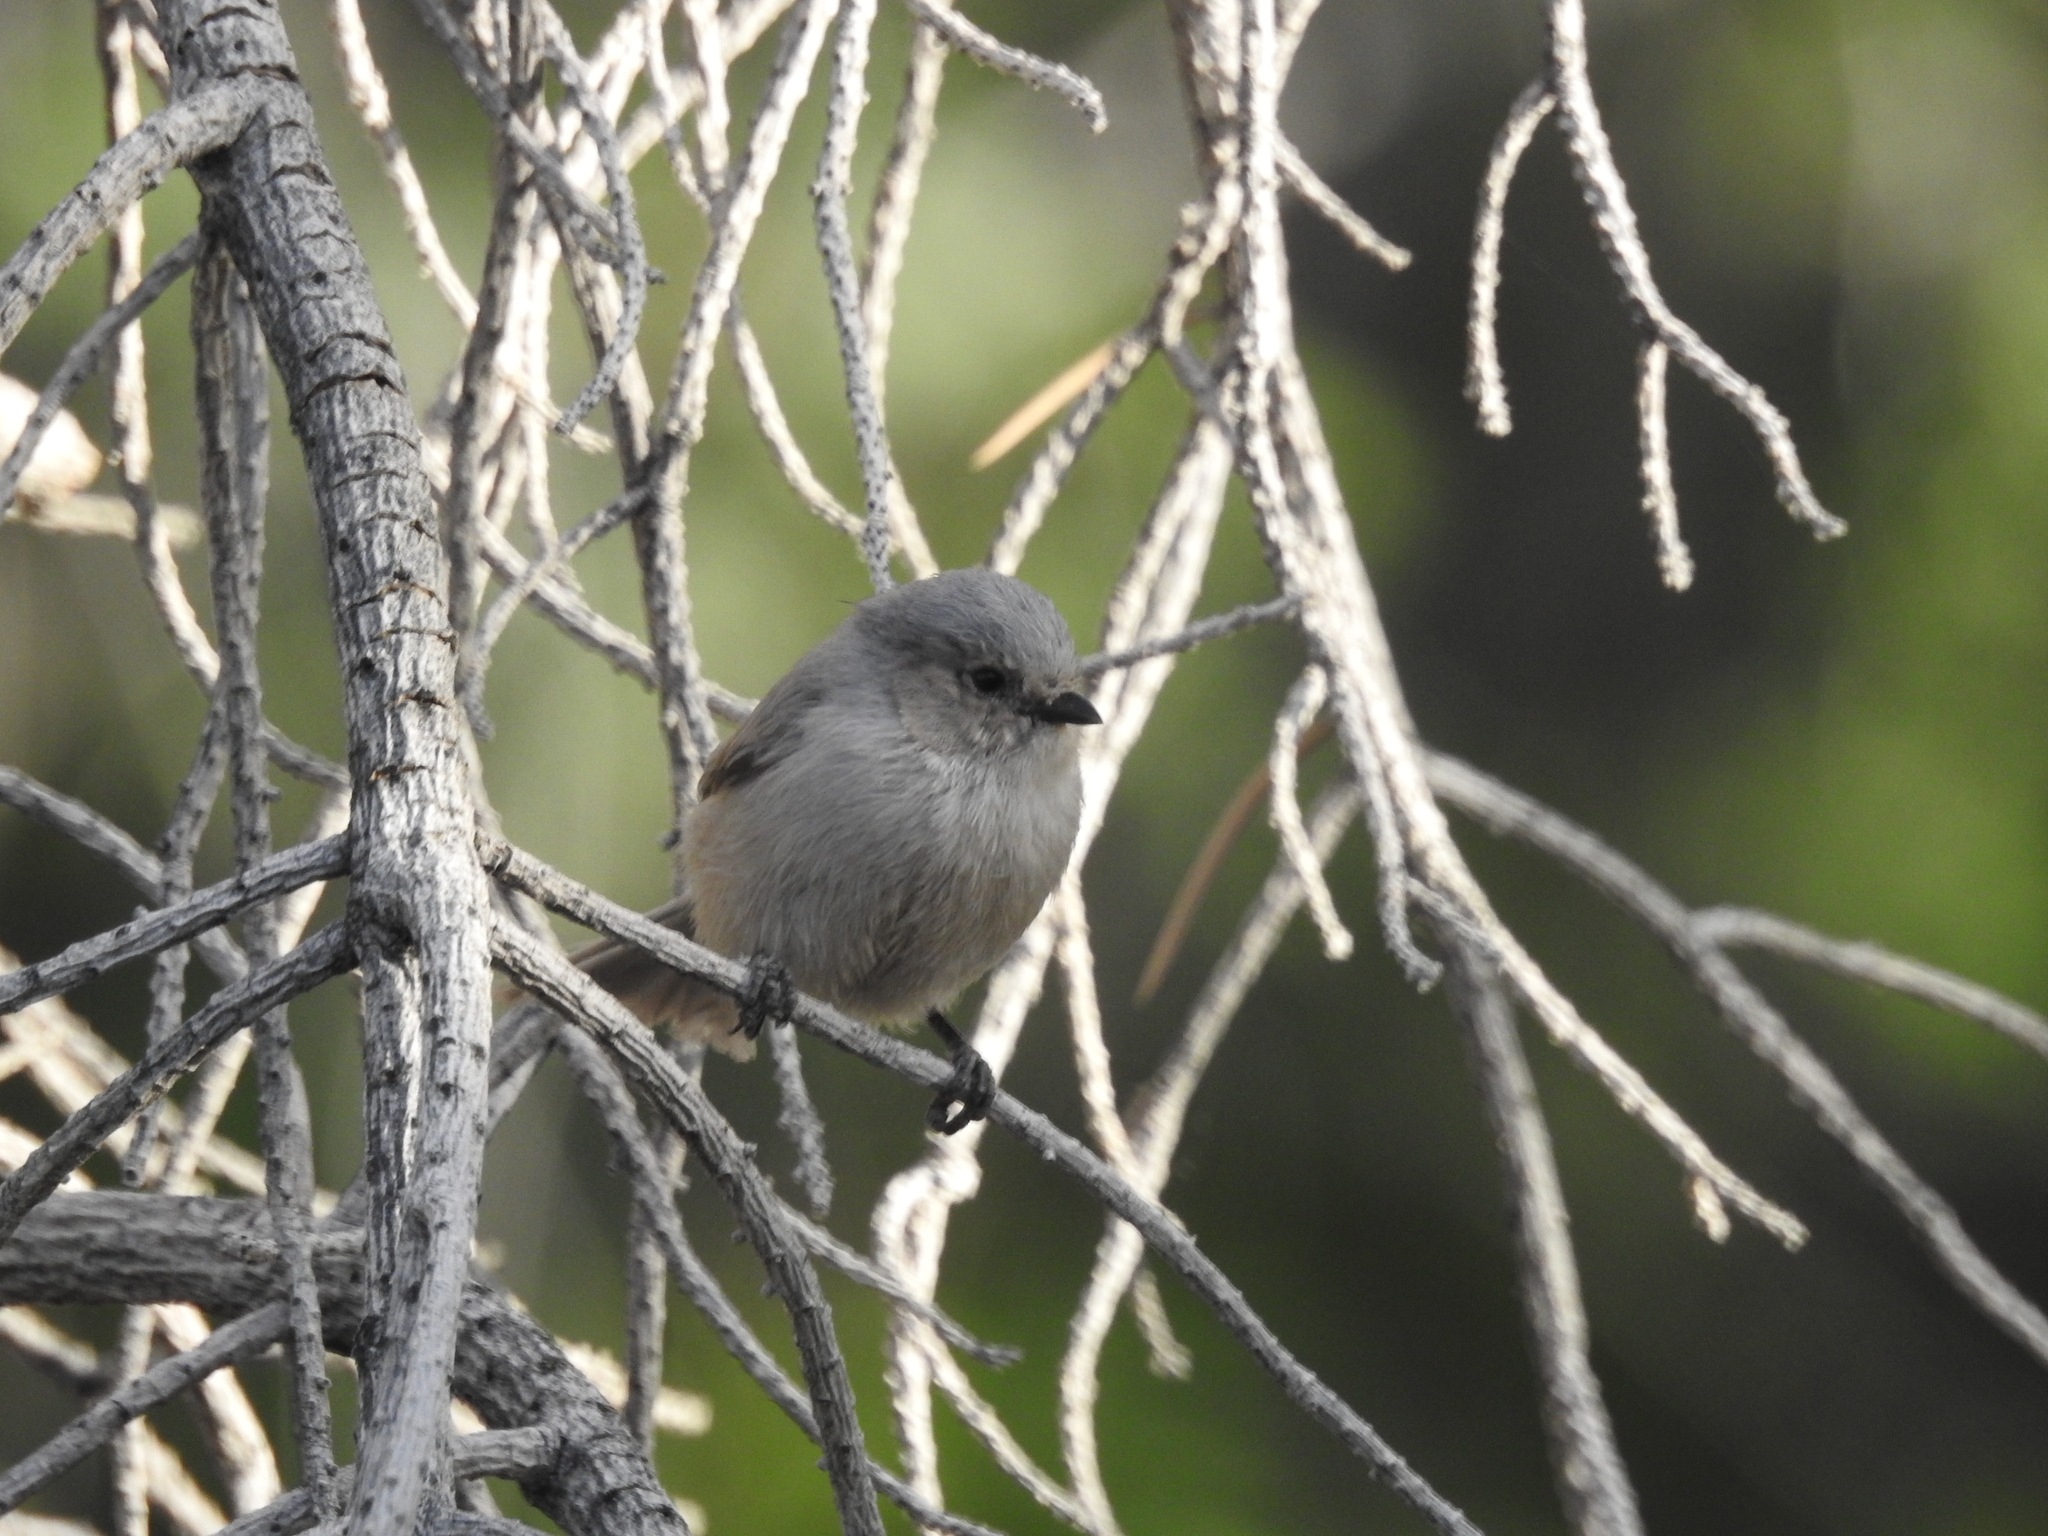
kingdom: Animalia
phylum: Chordata
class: Aves
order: Passeriformes
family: Aegithalidae
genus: Psaltriparus
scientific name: Psaltriparus minimus
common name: American bushtit
